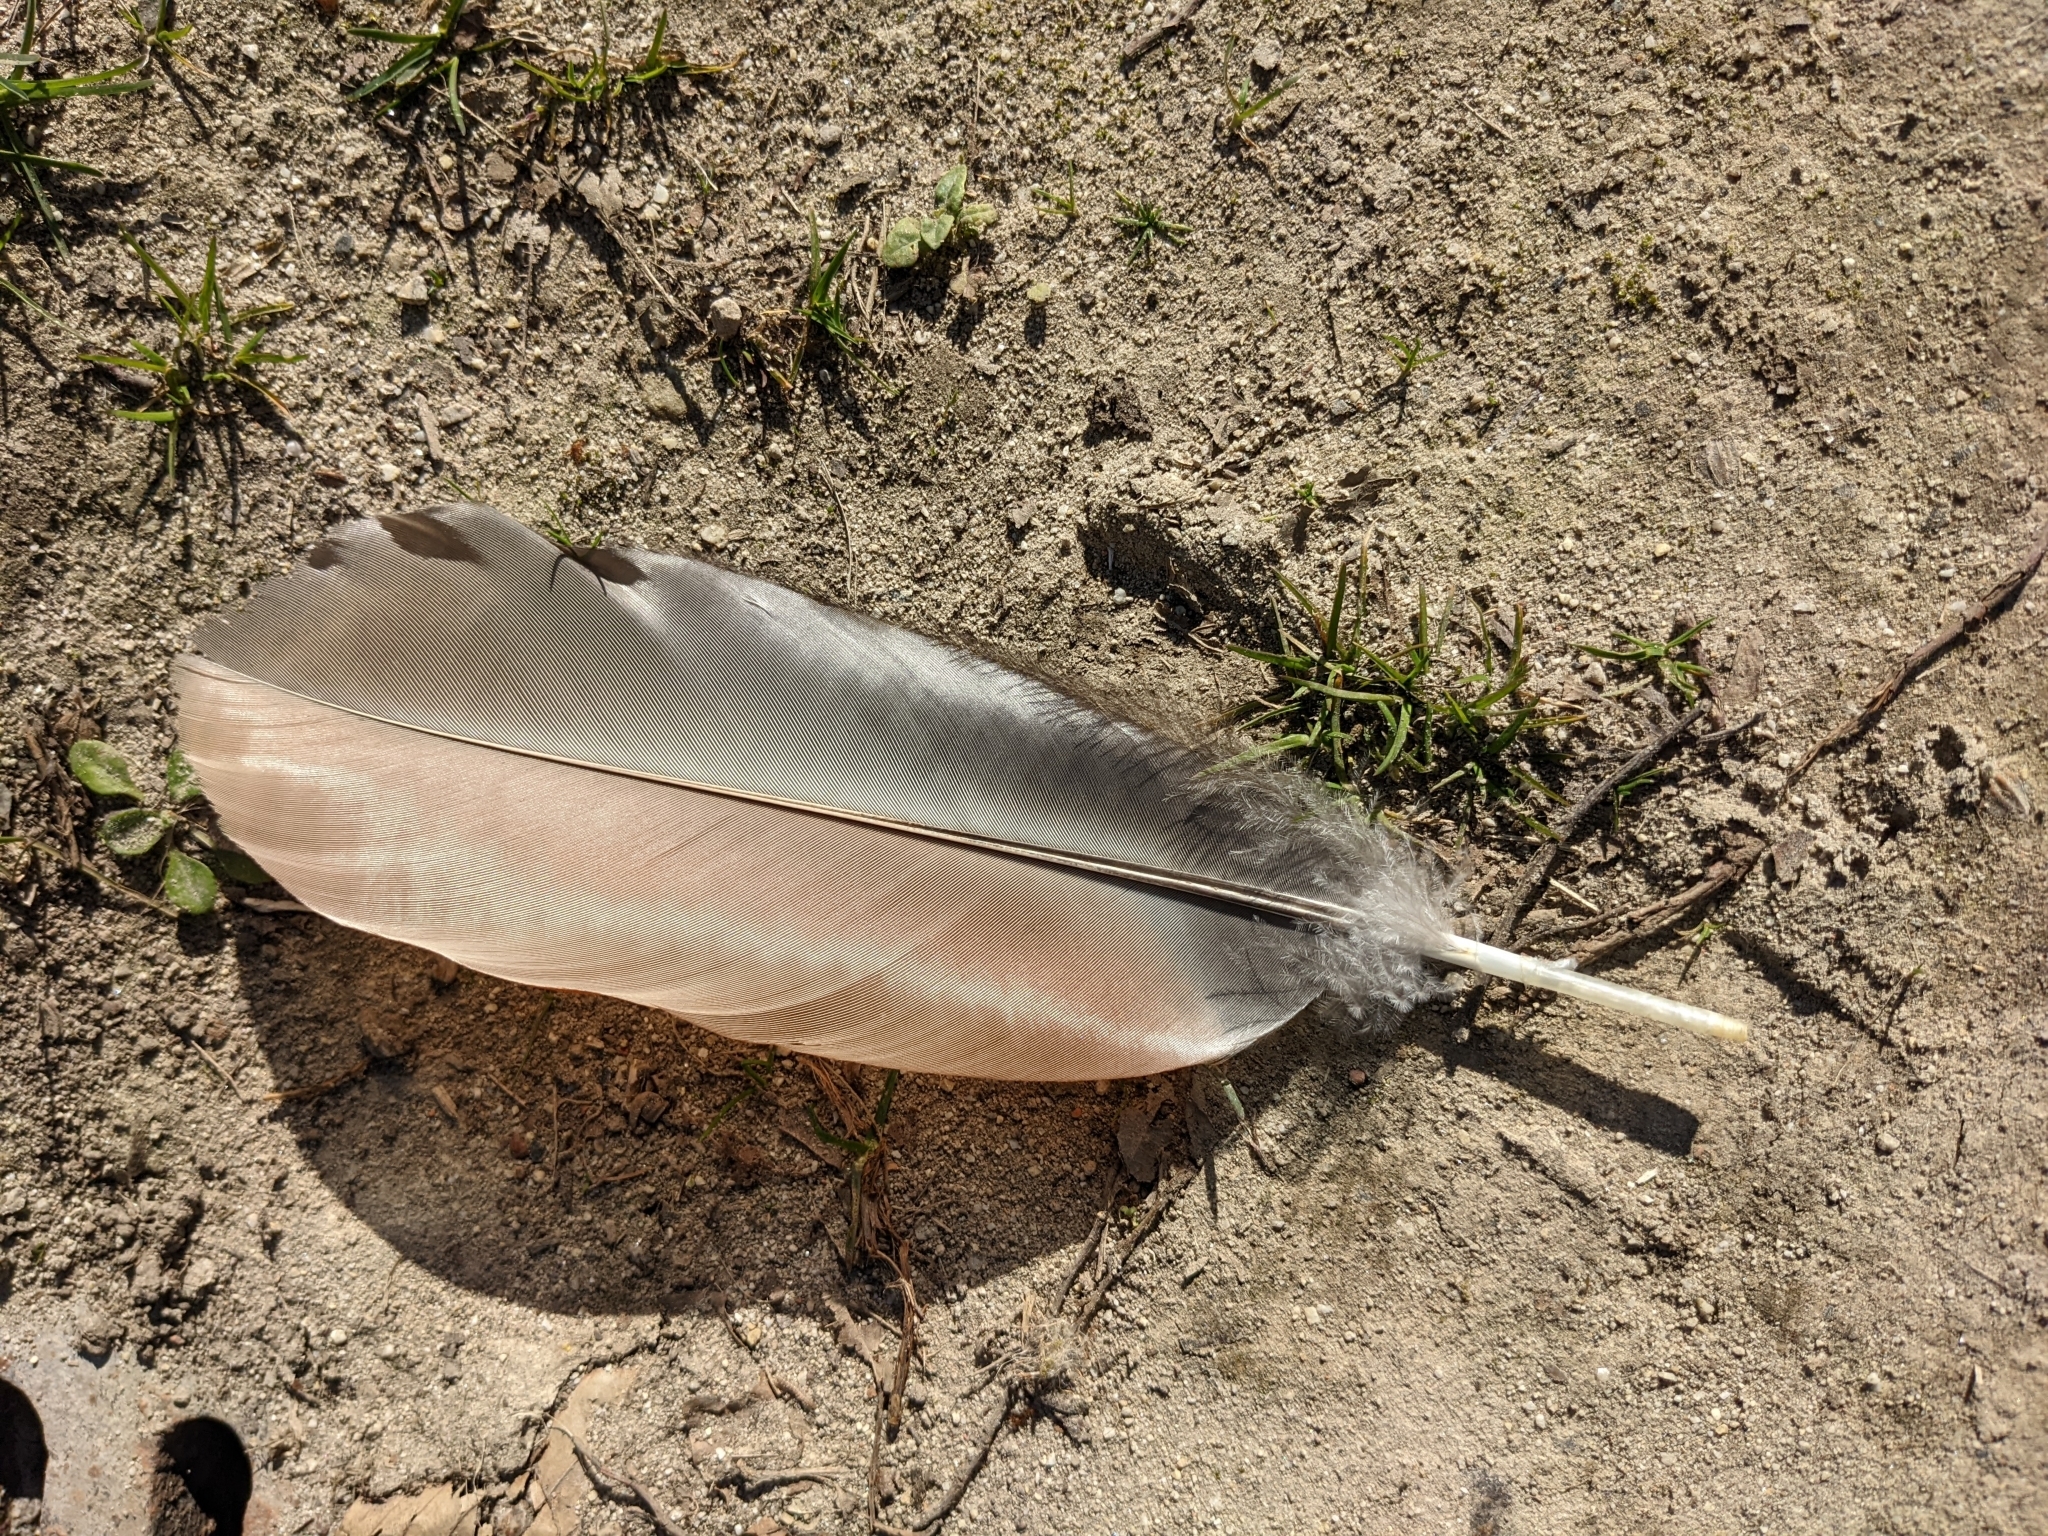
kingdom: Animalia
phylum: Chordata
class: Aves
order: Anseriformes
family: Anatidae
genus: Alopochen
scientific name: Alopochen aegyptiaca
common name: Egyptian goose
